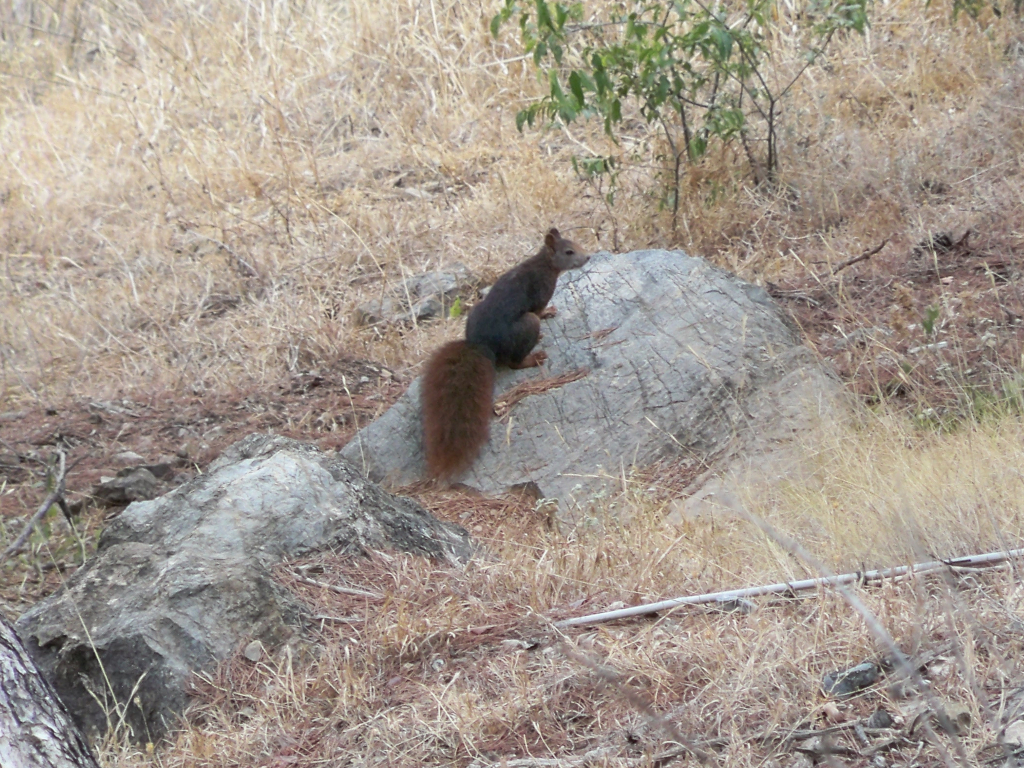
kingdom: Animalia
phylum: Chordata
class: Mammalia
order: Rodentia
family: Sciuridae
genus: Sciurus
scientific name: Sciurus vulgaris
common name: Eurasian red squirrel
